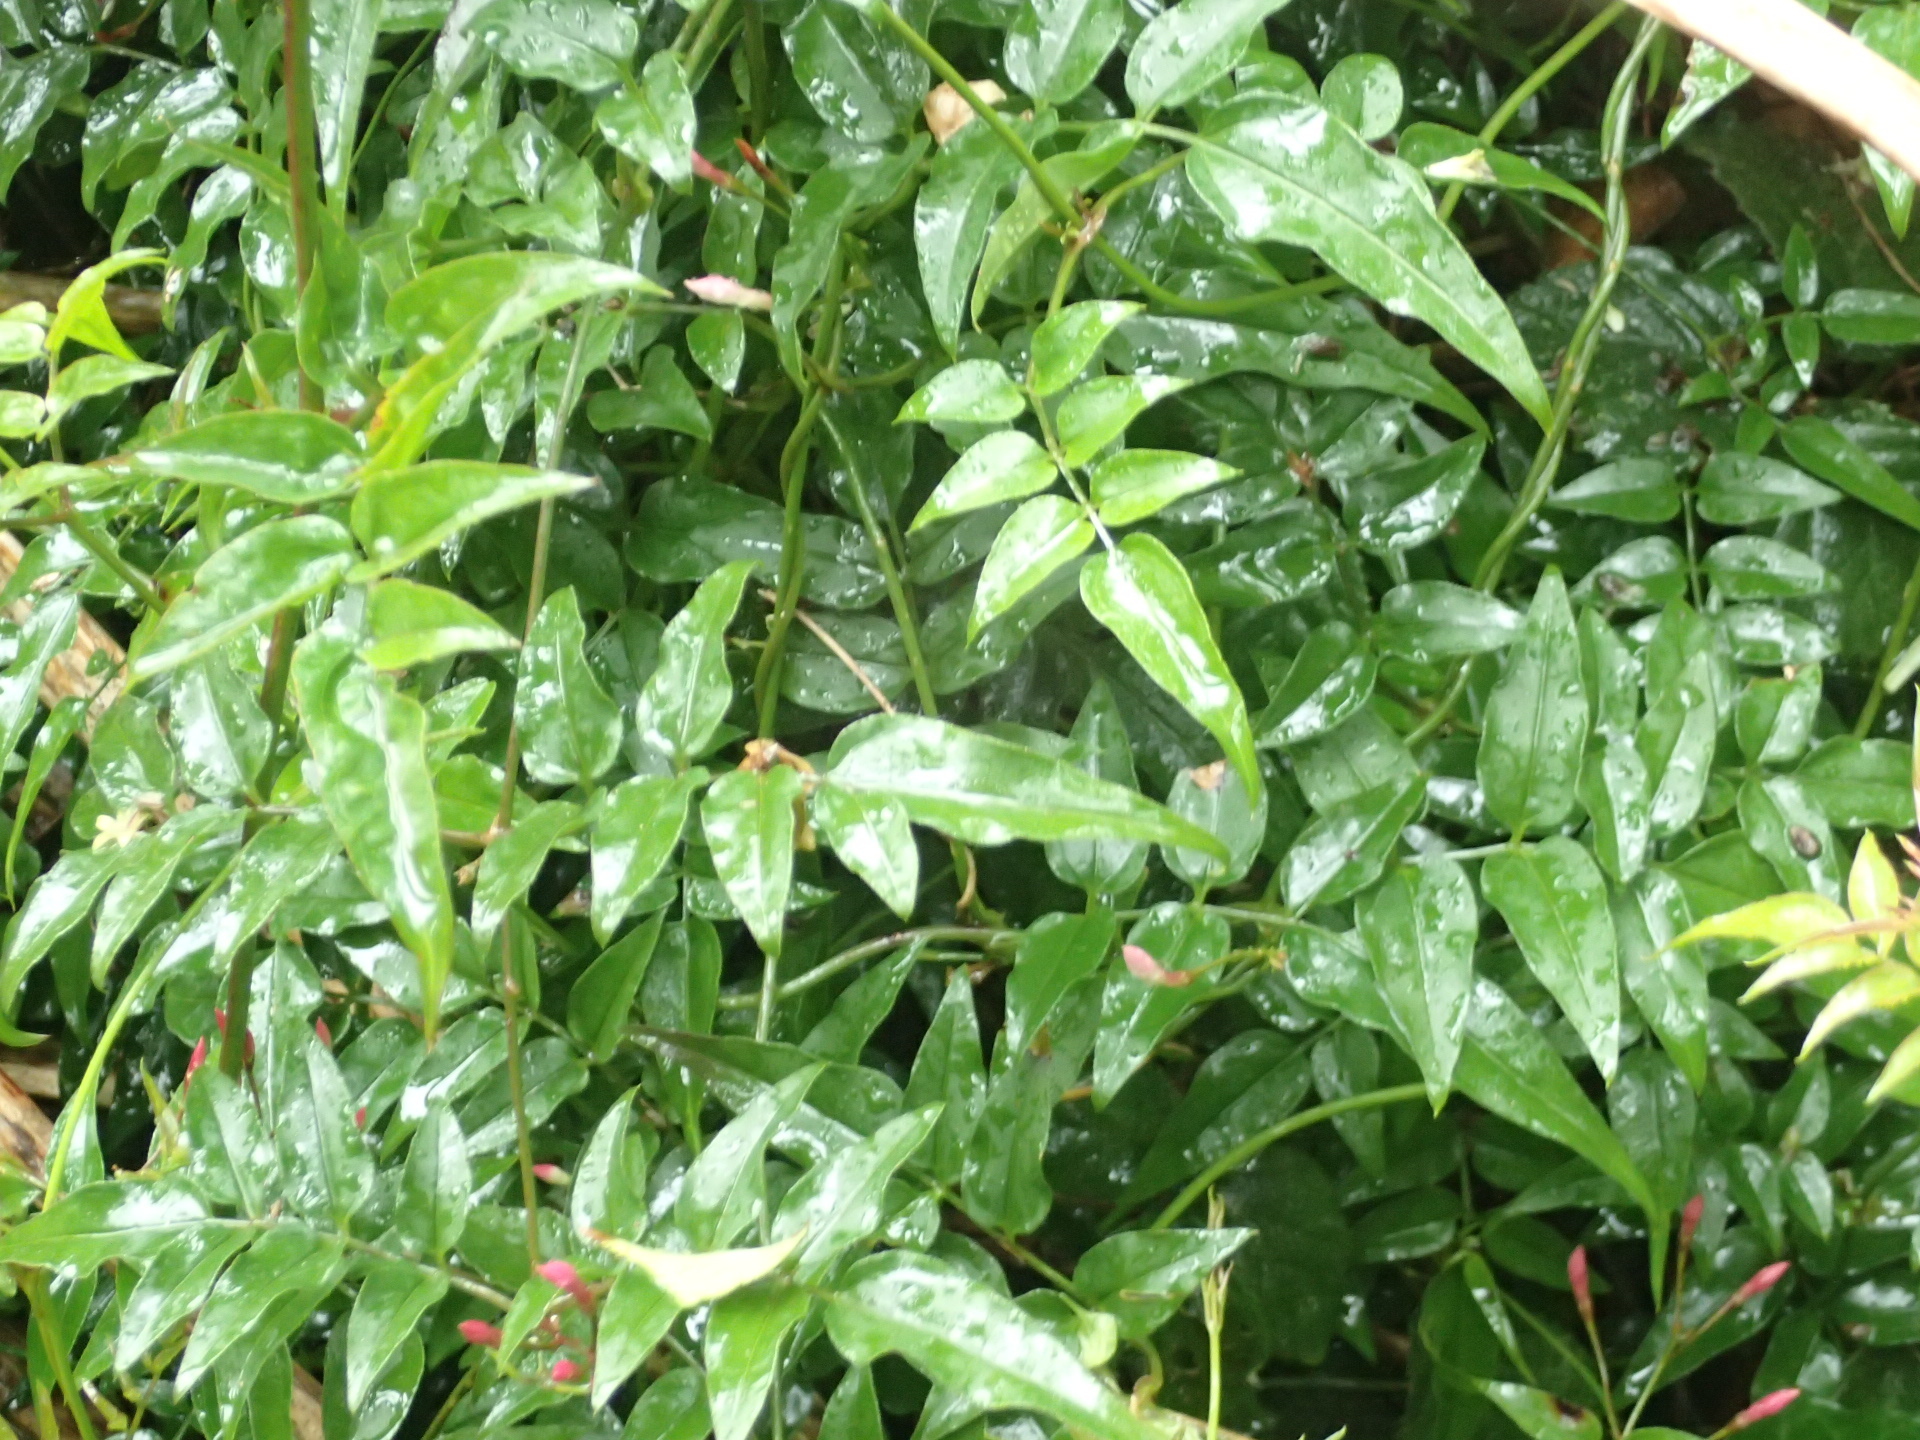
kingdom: Plantae
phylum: Tracheophyta
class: Magnoliopsida
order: Lamiales
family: Oleaceae
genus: Jasminum
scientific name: Jasminum polyanthum
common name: Pink jasmine
